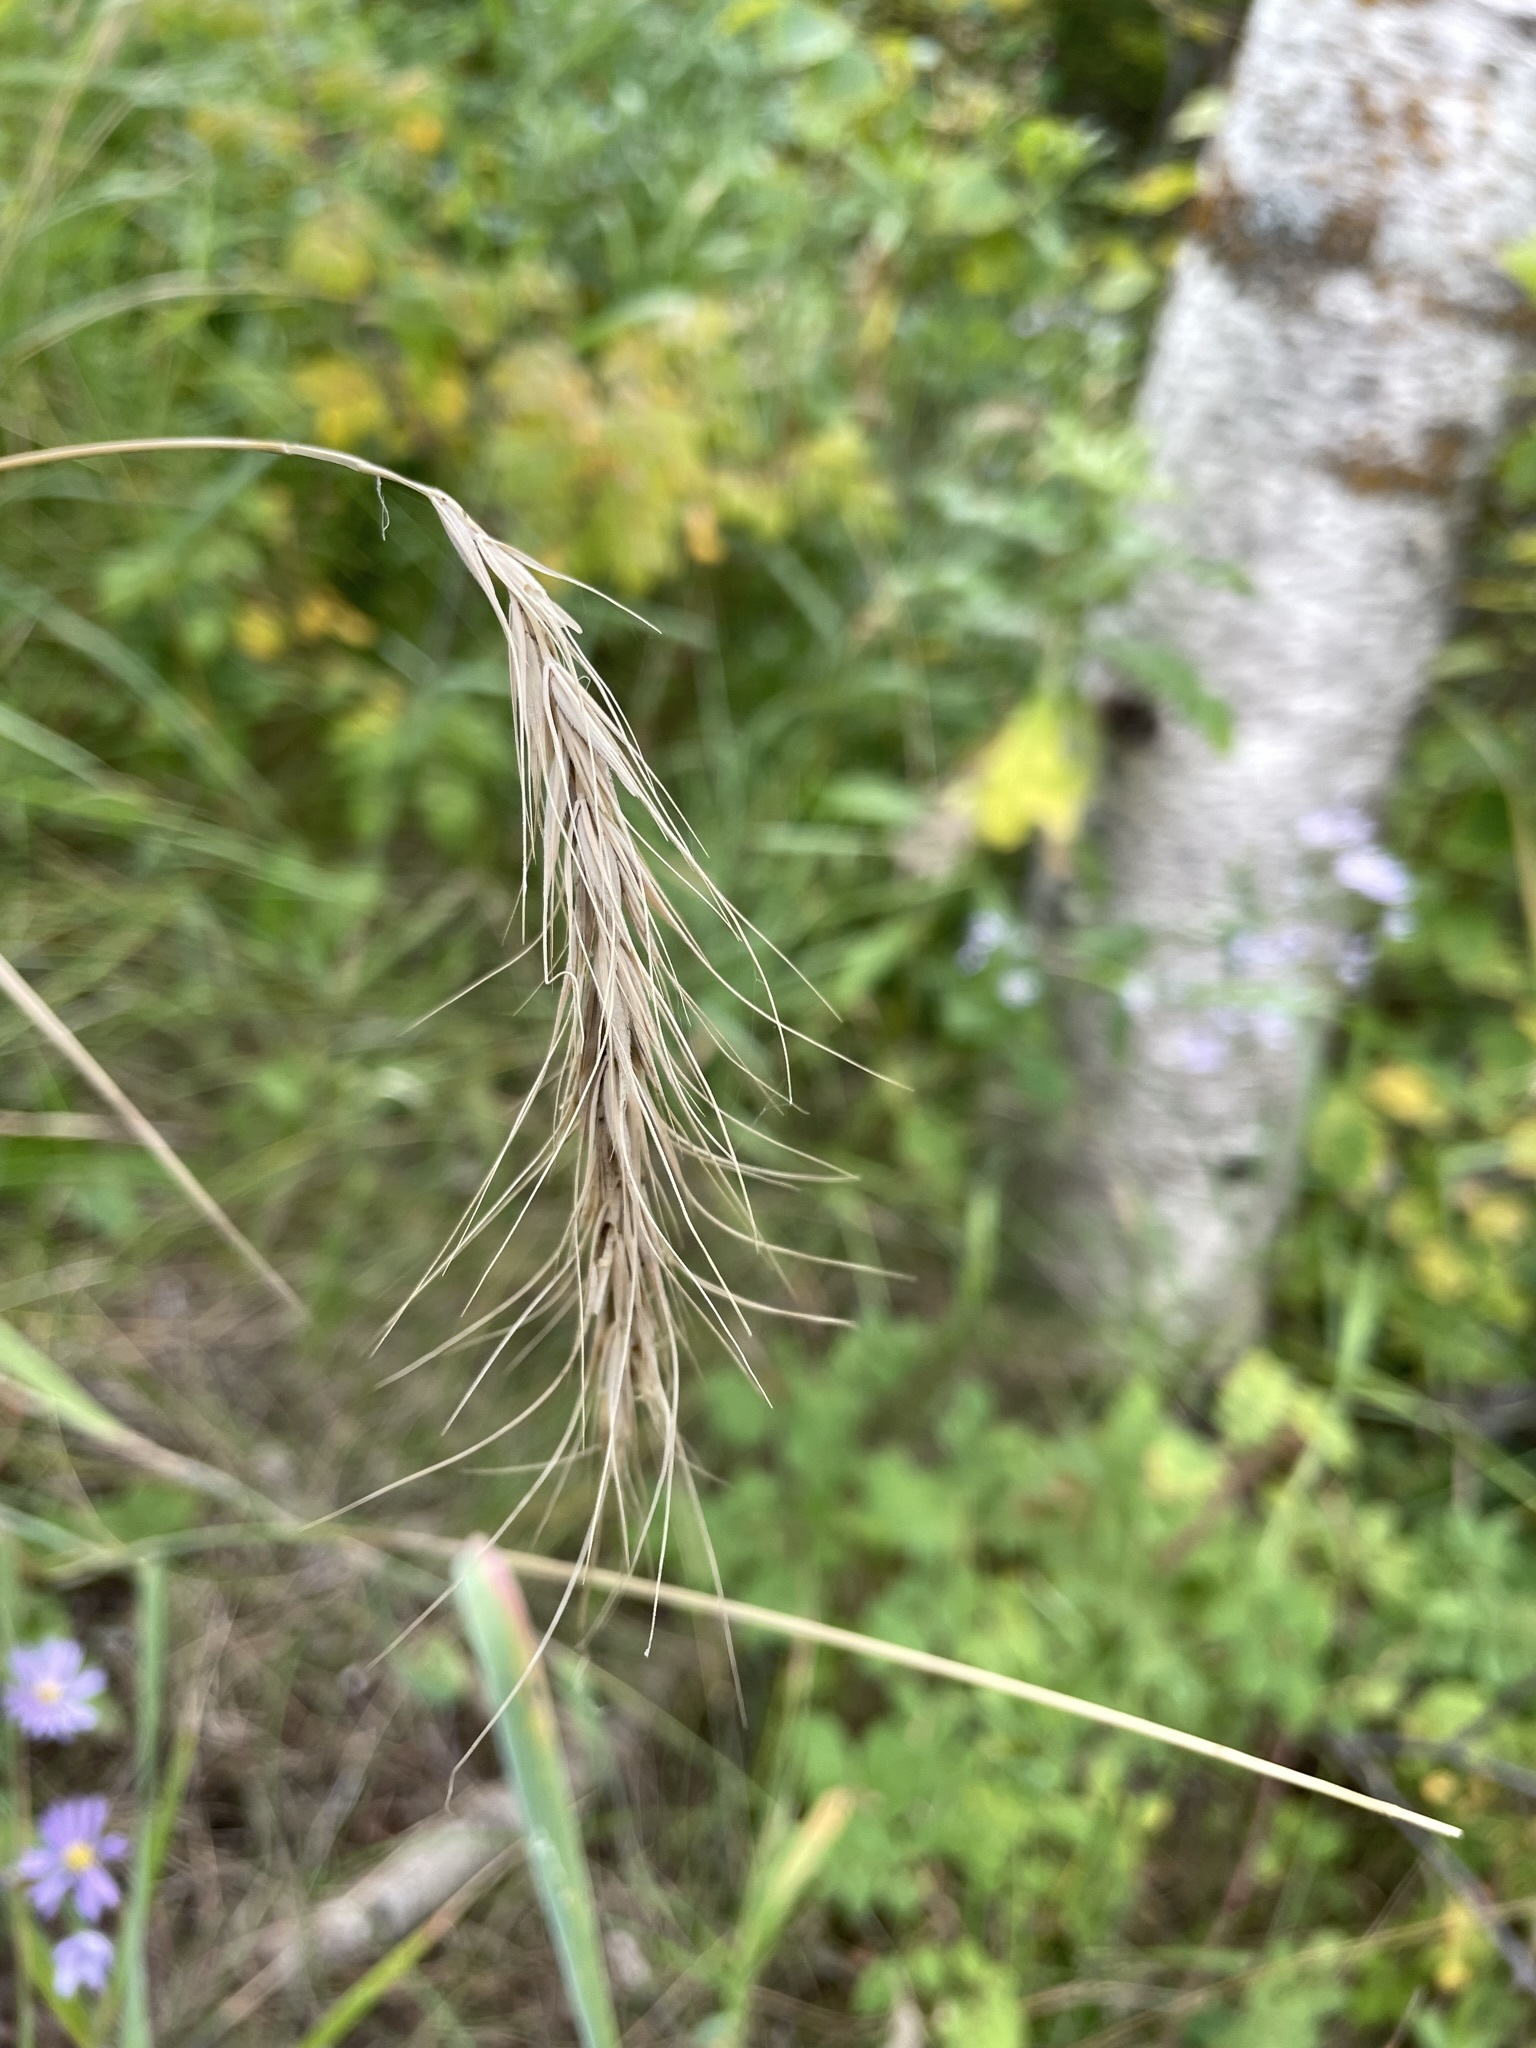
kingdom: Plantae
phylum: Tracheophyta
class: Liliopsida
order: Poales
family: Poaceae
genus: Elymus
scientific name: Elymus canadensis
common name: Canada wild rye
